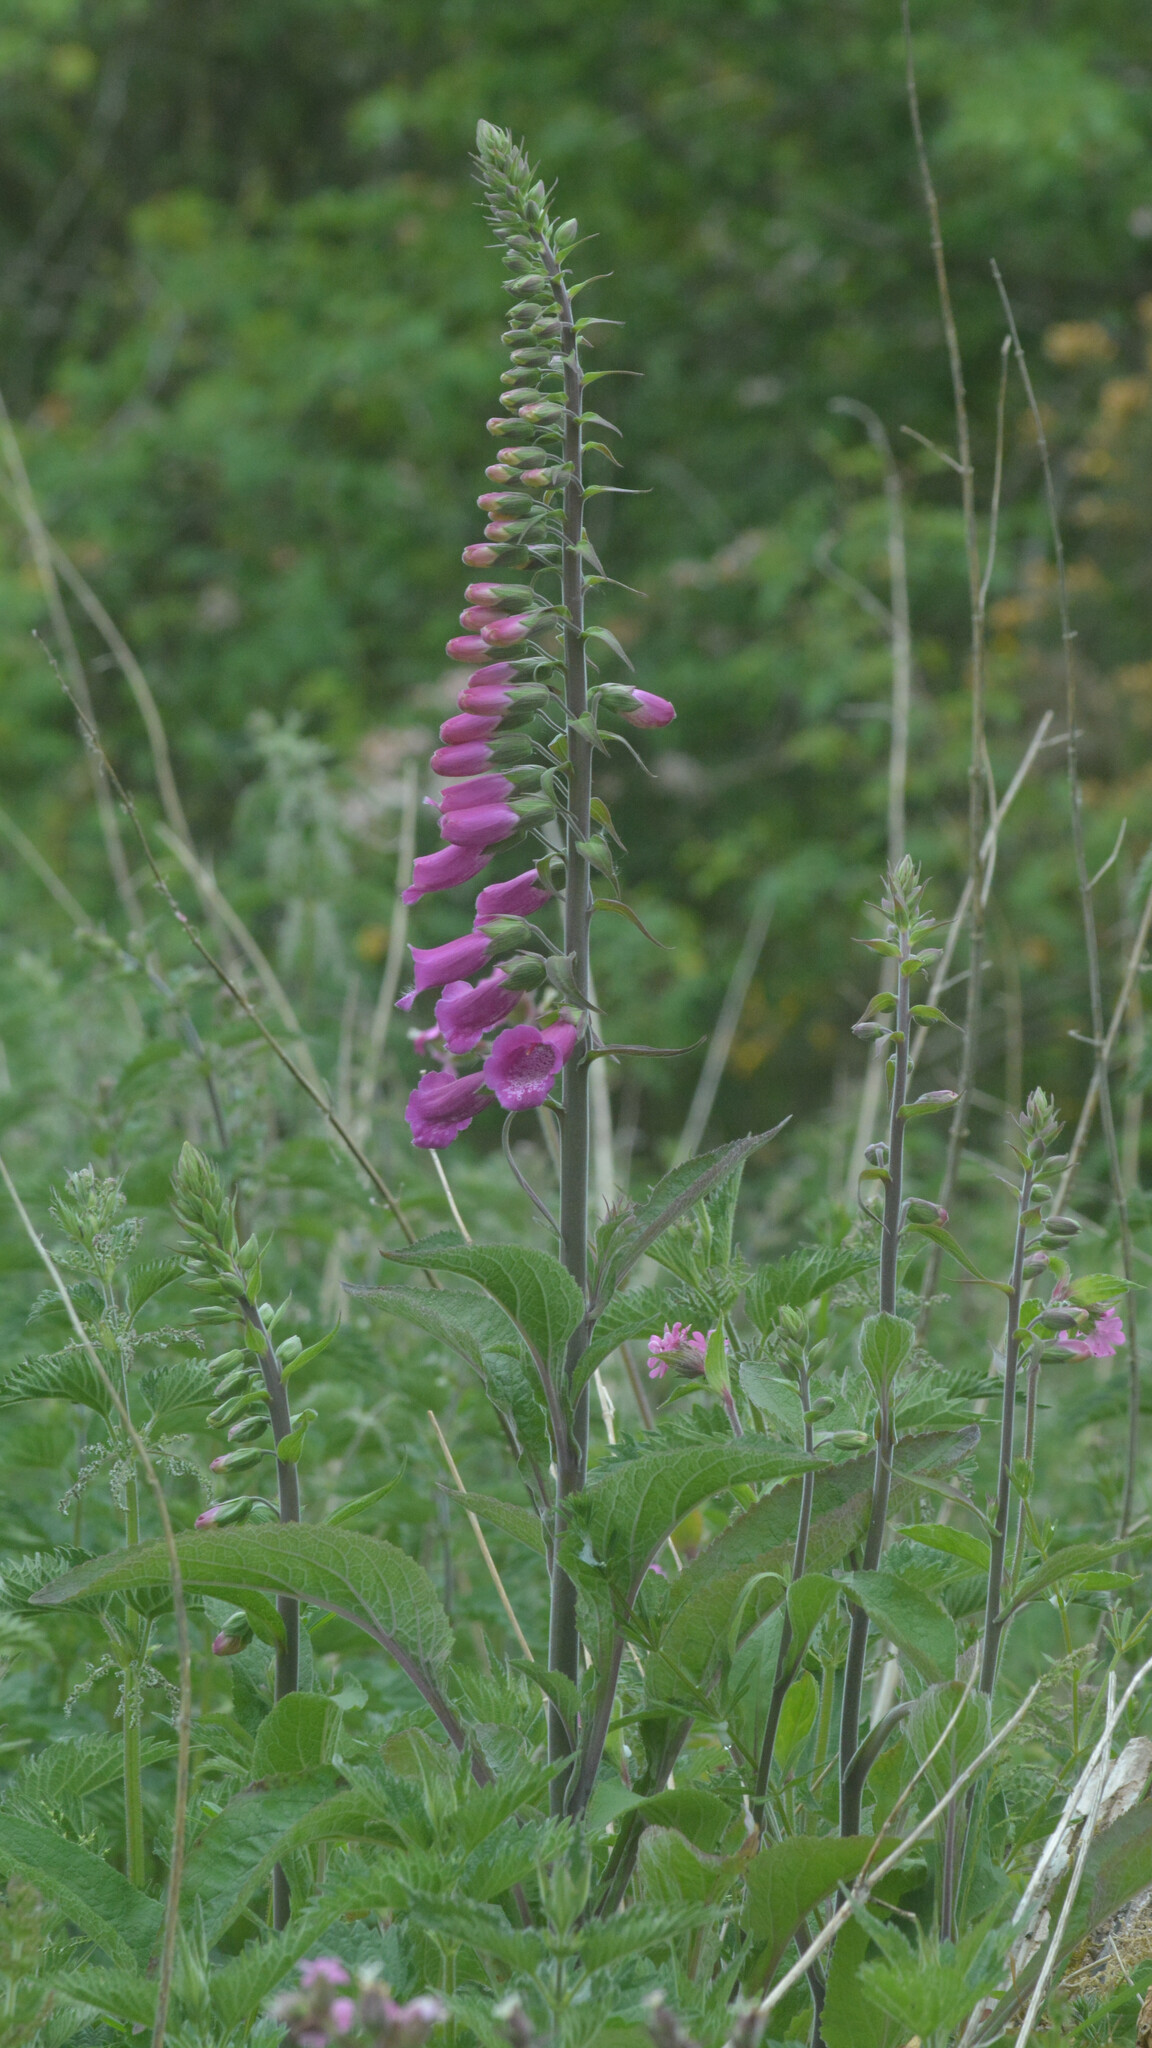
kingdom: Plantae
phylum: Tracheophyta
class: Magnoliopsida
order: Lamiales
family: Plantaginaceae
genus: Digitalis
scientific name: Digitalis purpurea
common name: Foxglove
